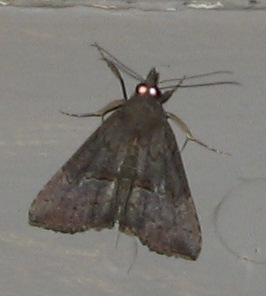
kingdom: Animalia
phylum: Arthropoda
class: Insecta
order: Lepidoptera
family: Erebidae
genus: Hypena
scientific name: Hypena scabra
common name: Green cloverworm
